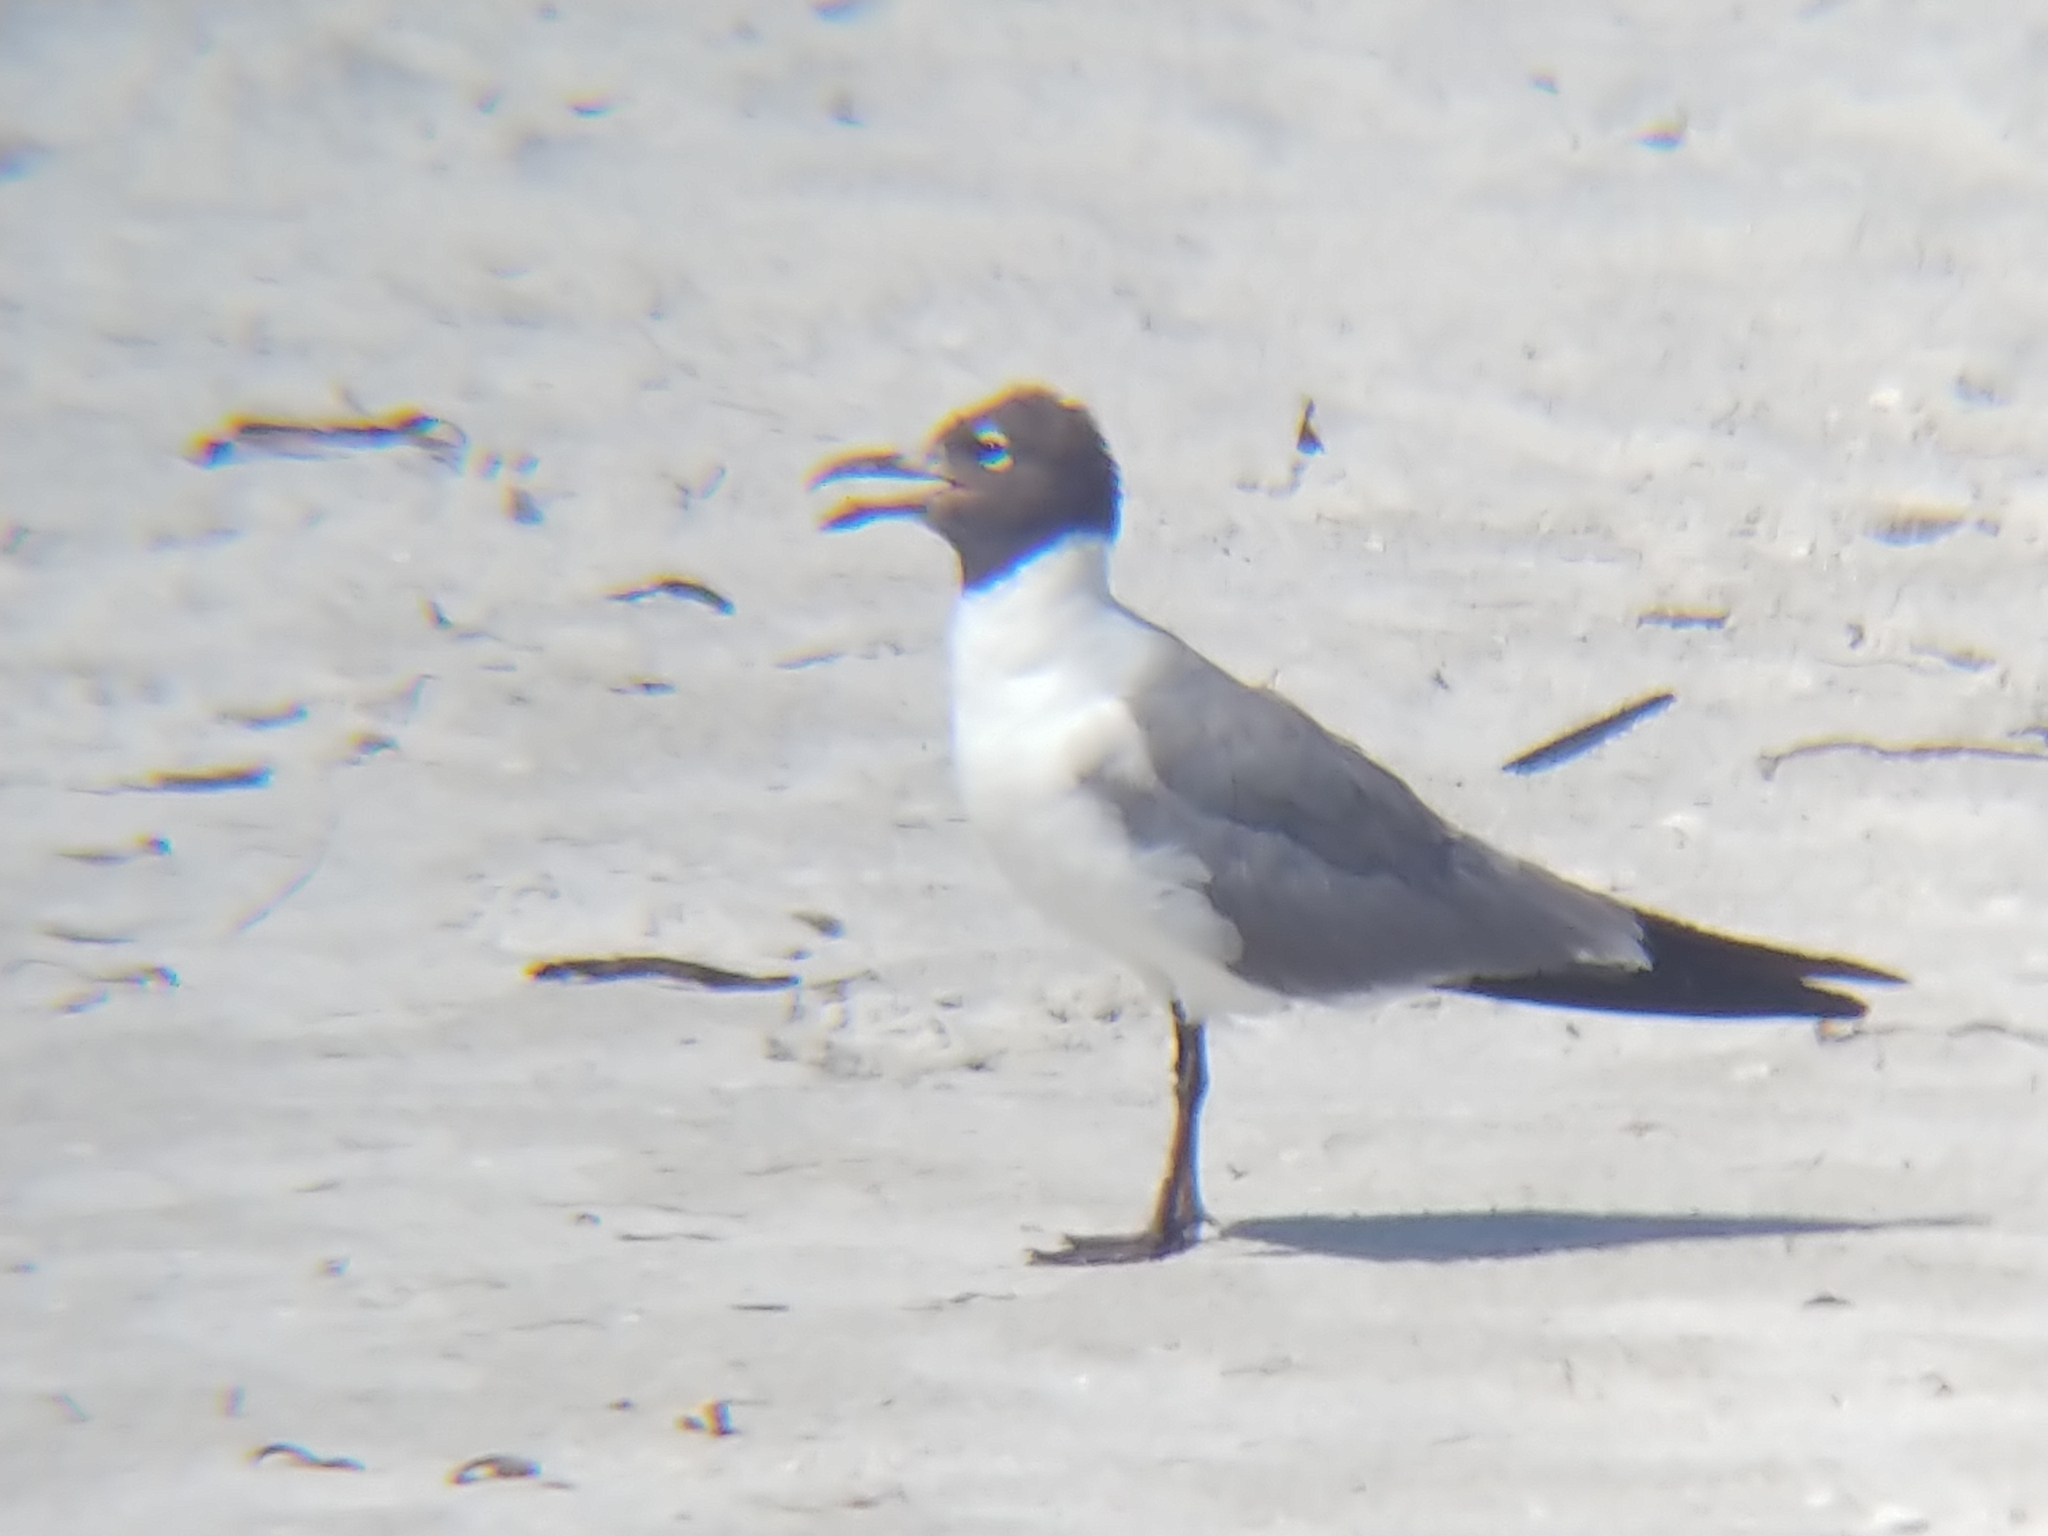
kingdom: Animalia
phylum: Chordata
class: Aves
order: Charadriiformes
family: Laridae
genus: Leucophaeus
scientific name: Leucophaeus atricilla
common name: Laughing gull
